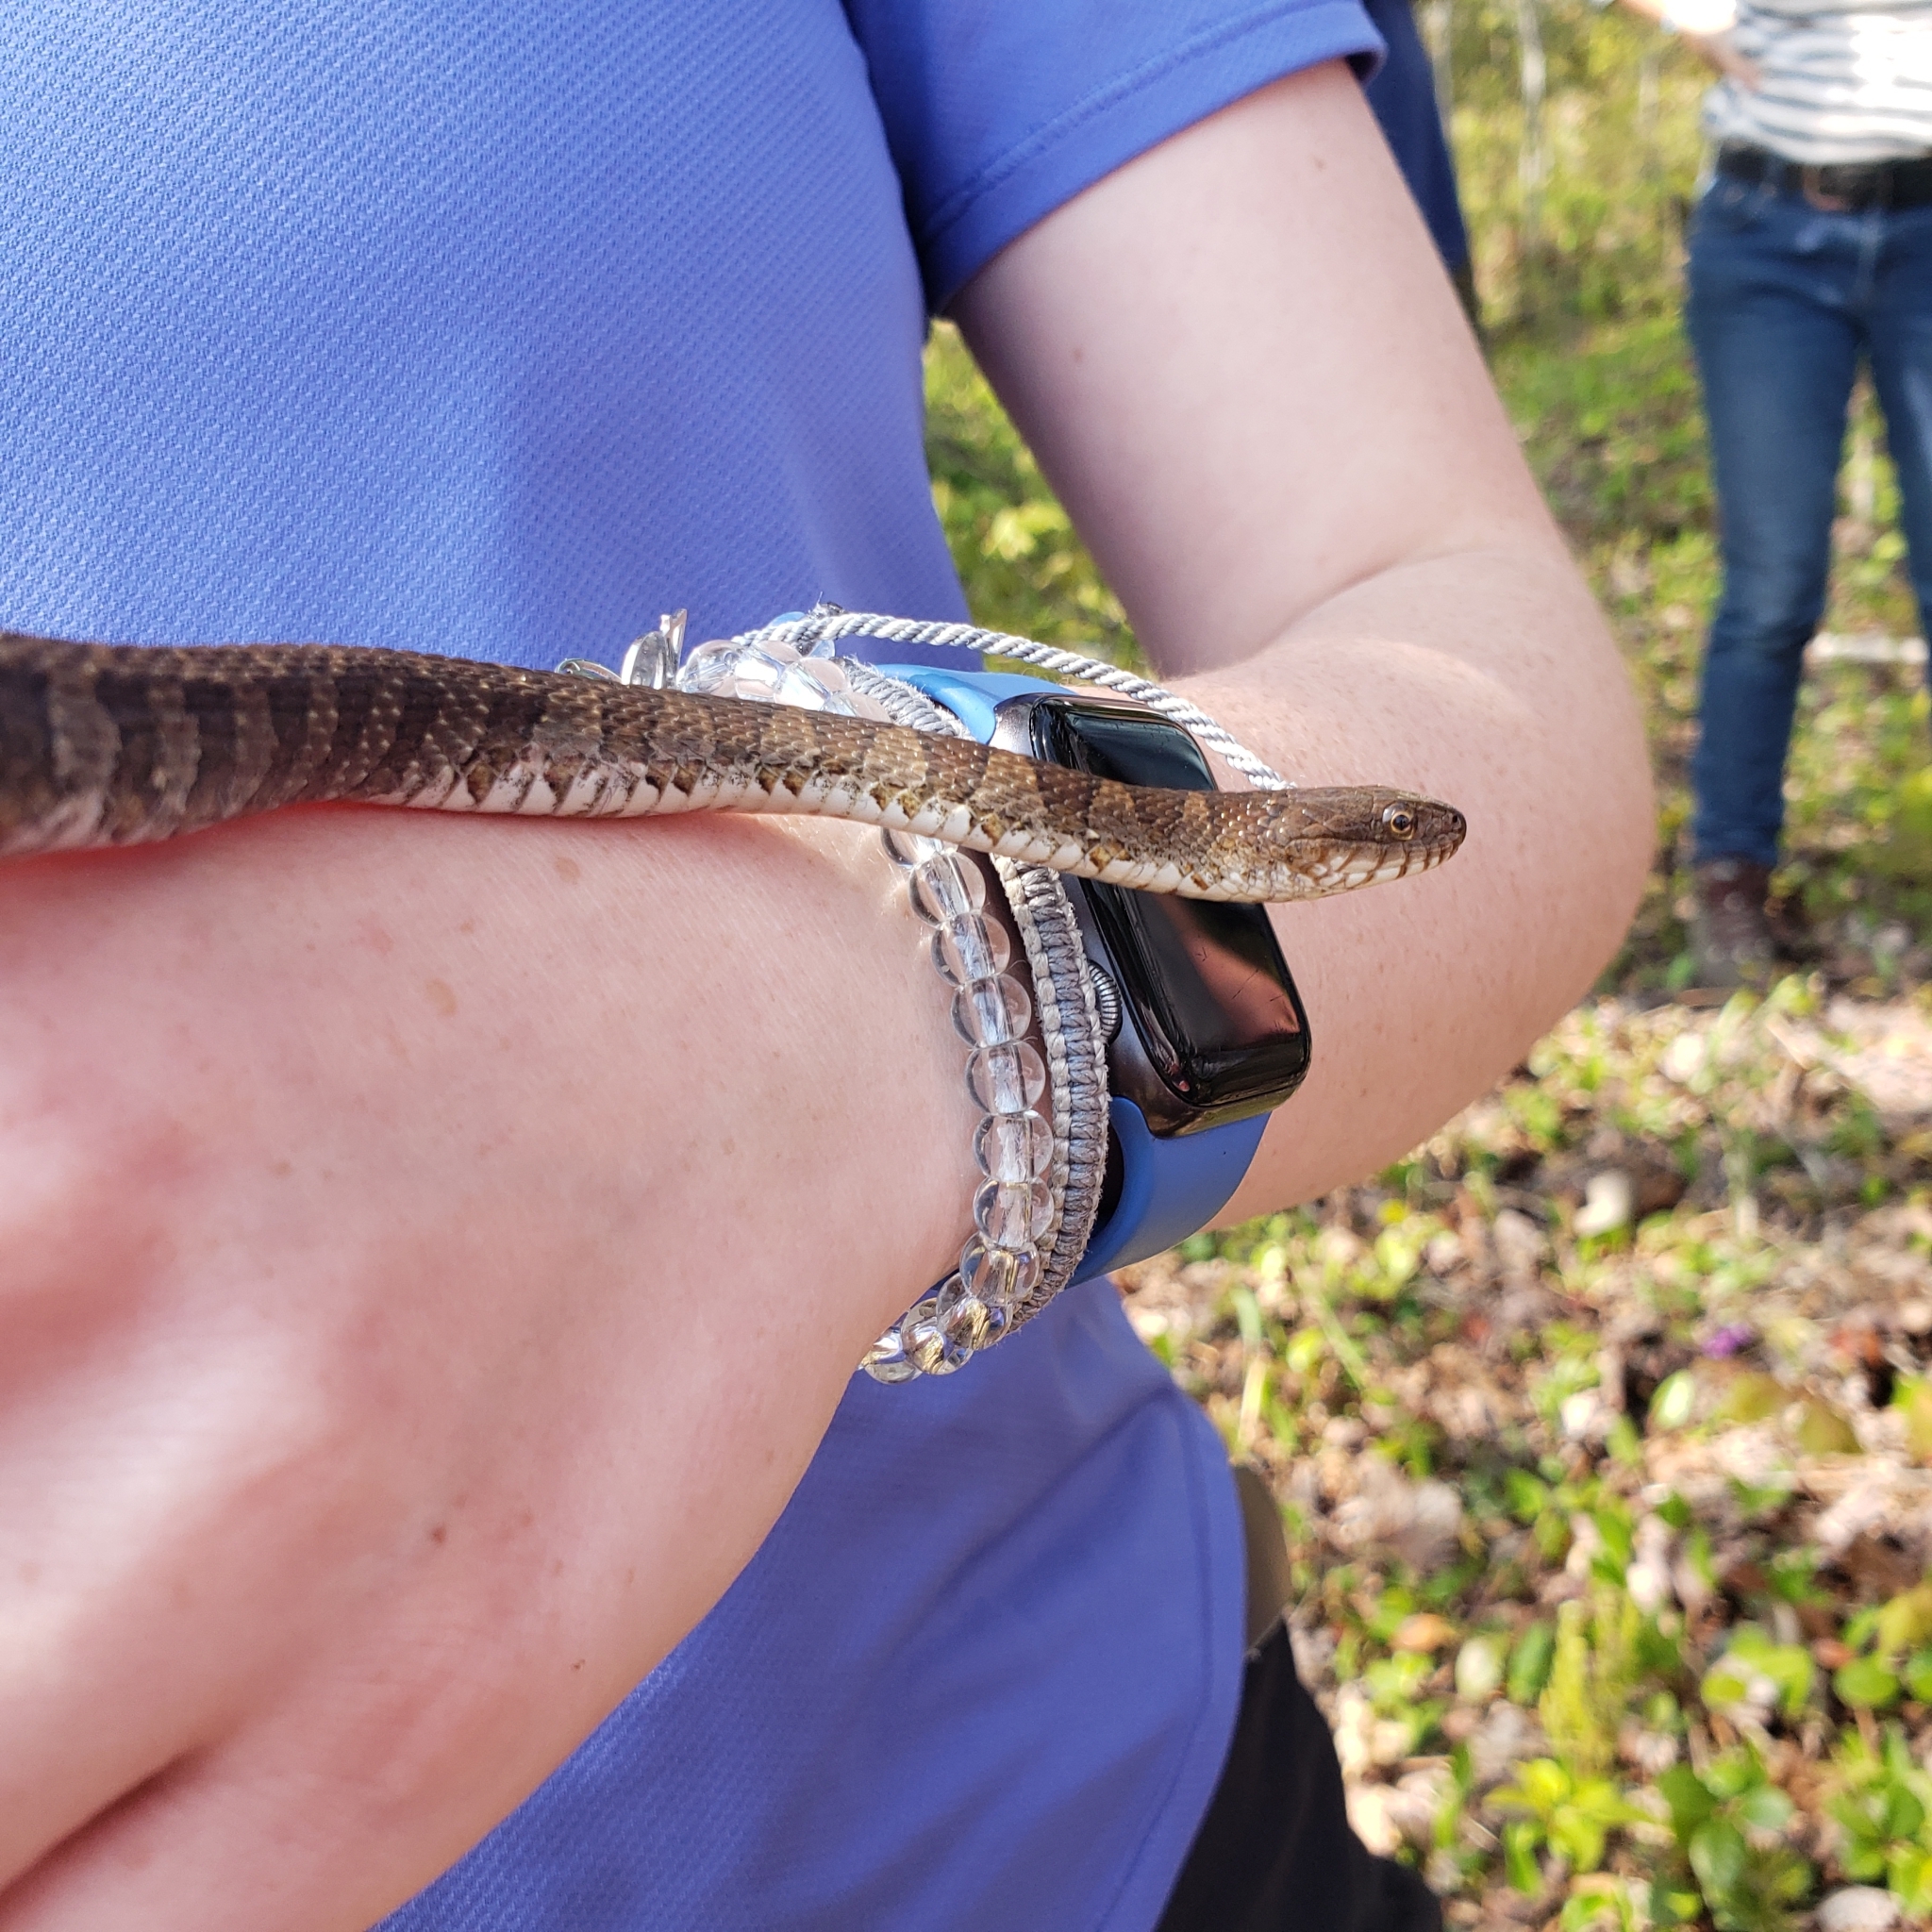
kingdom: Animalia
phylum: Chordata
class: Squamata
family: Colubridae
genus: Nerodia
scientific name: Nerodia sipedon
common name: Northern water snake
